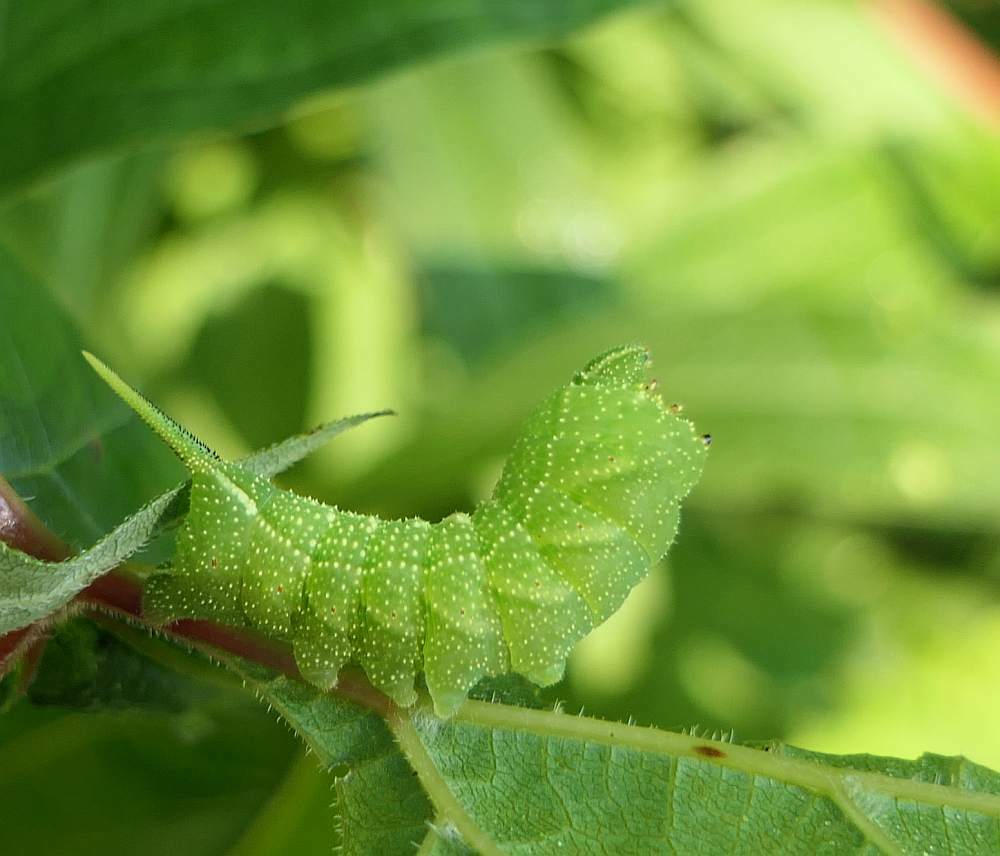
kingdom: Animalia
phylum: Arthropoda
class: Insecta
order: Lepidoptera
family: Sphingidae
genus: Darapsa
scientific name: Darapsa myron
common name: Hog sphinx
